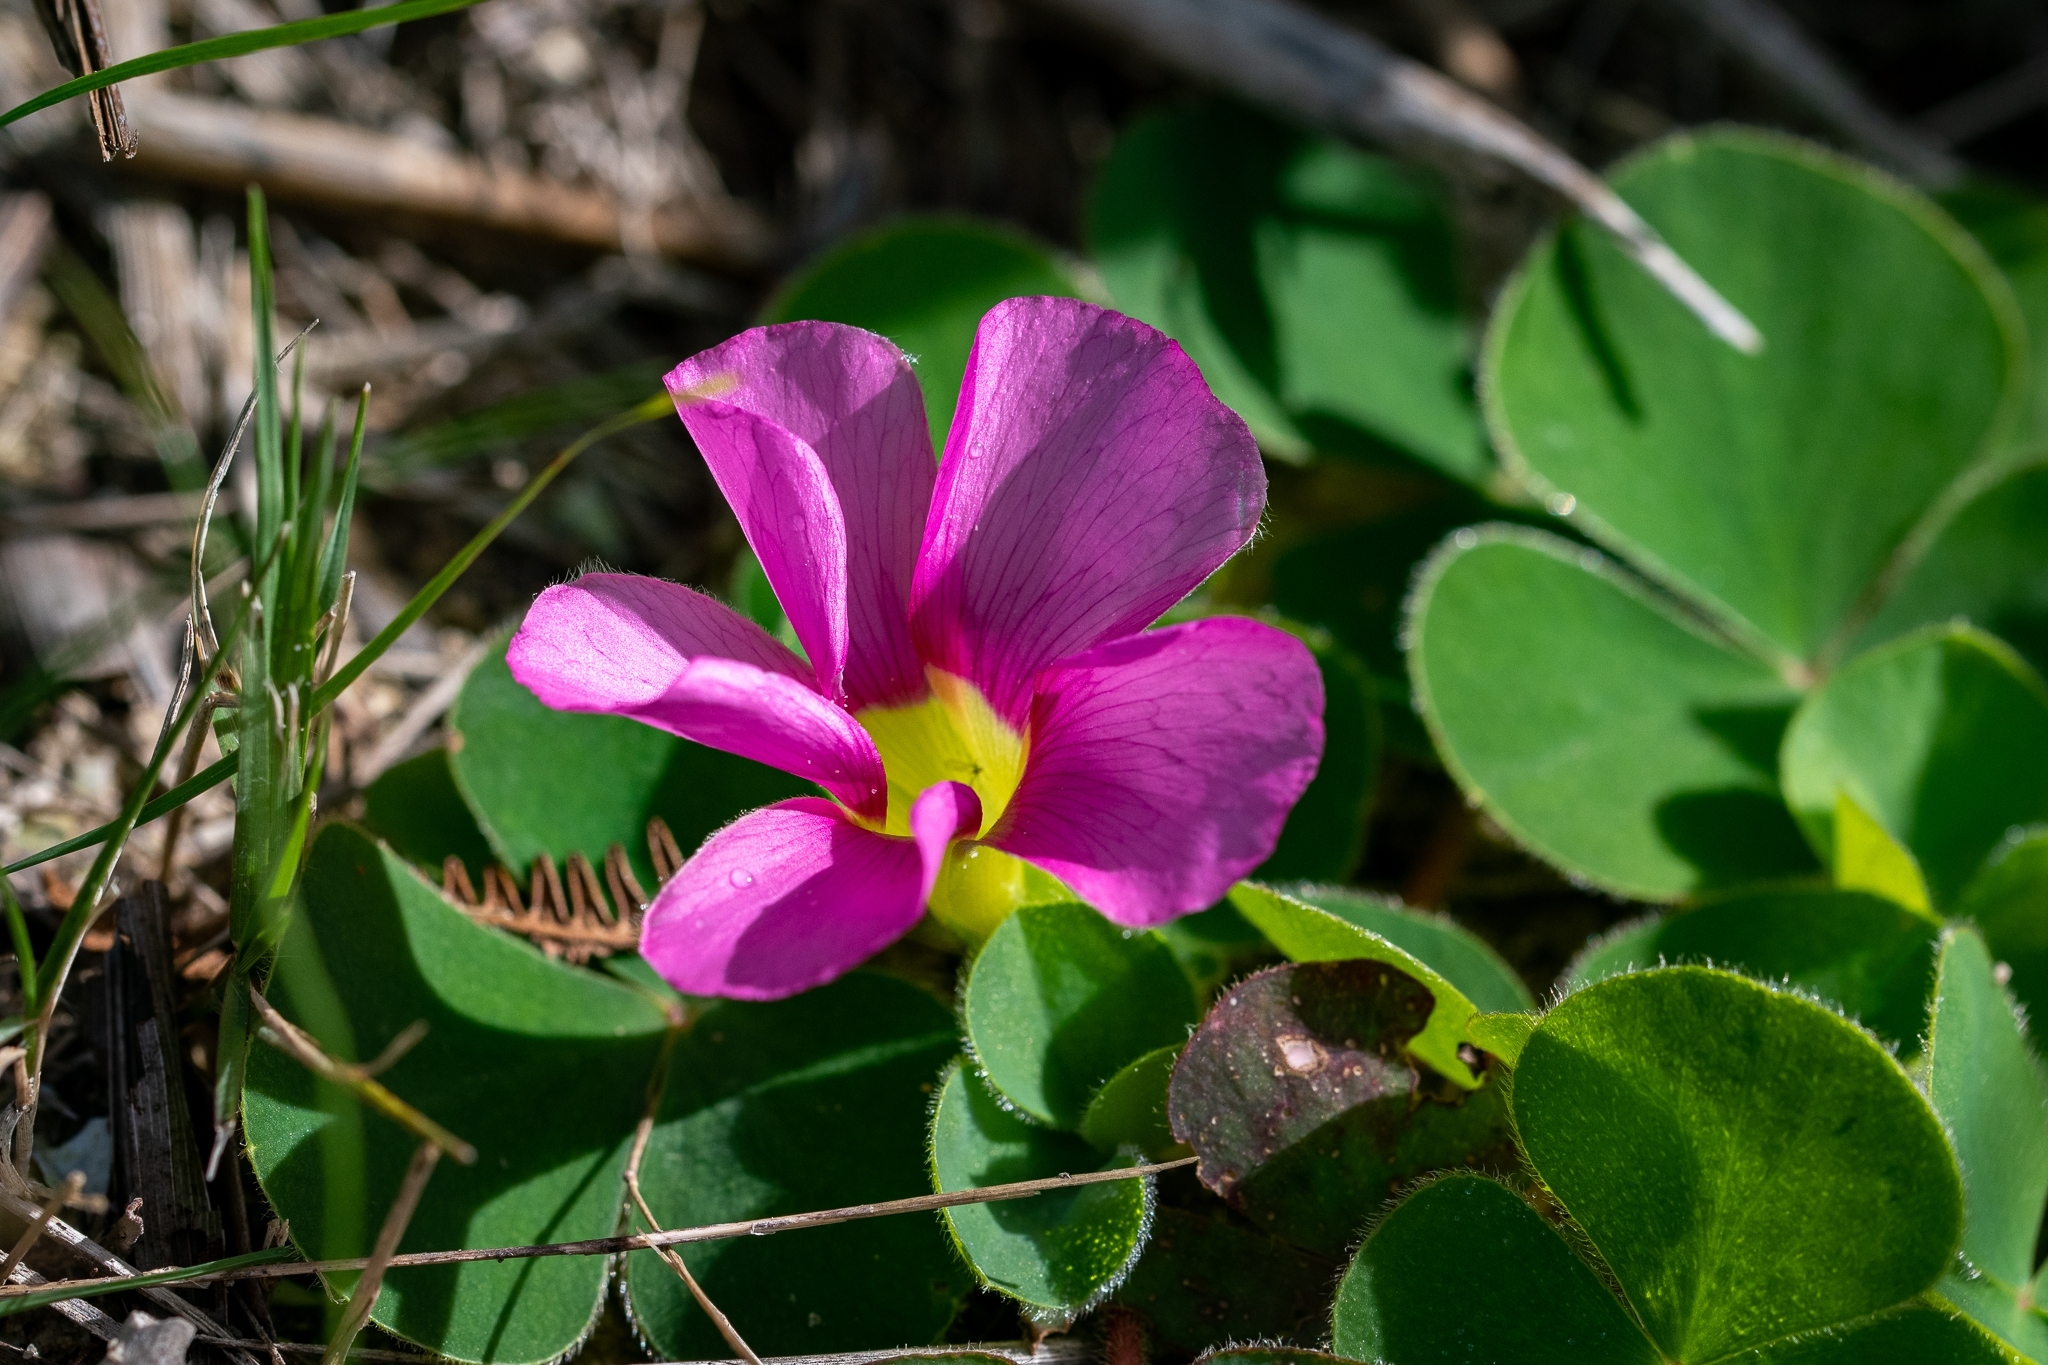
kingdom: Plantae
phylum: Tracheophyta
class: Magnoliopsida
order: Oxalidales
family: Oxalidaceae
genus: Oxalis
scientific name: Oxalis purpurea
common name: Purple woodsorrel
